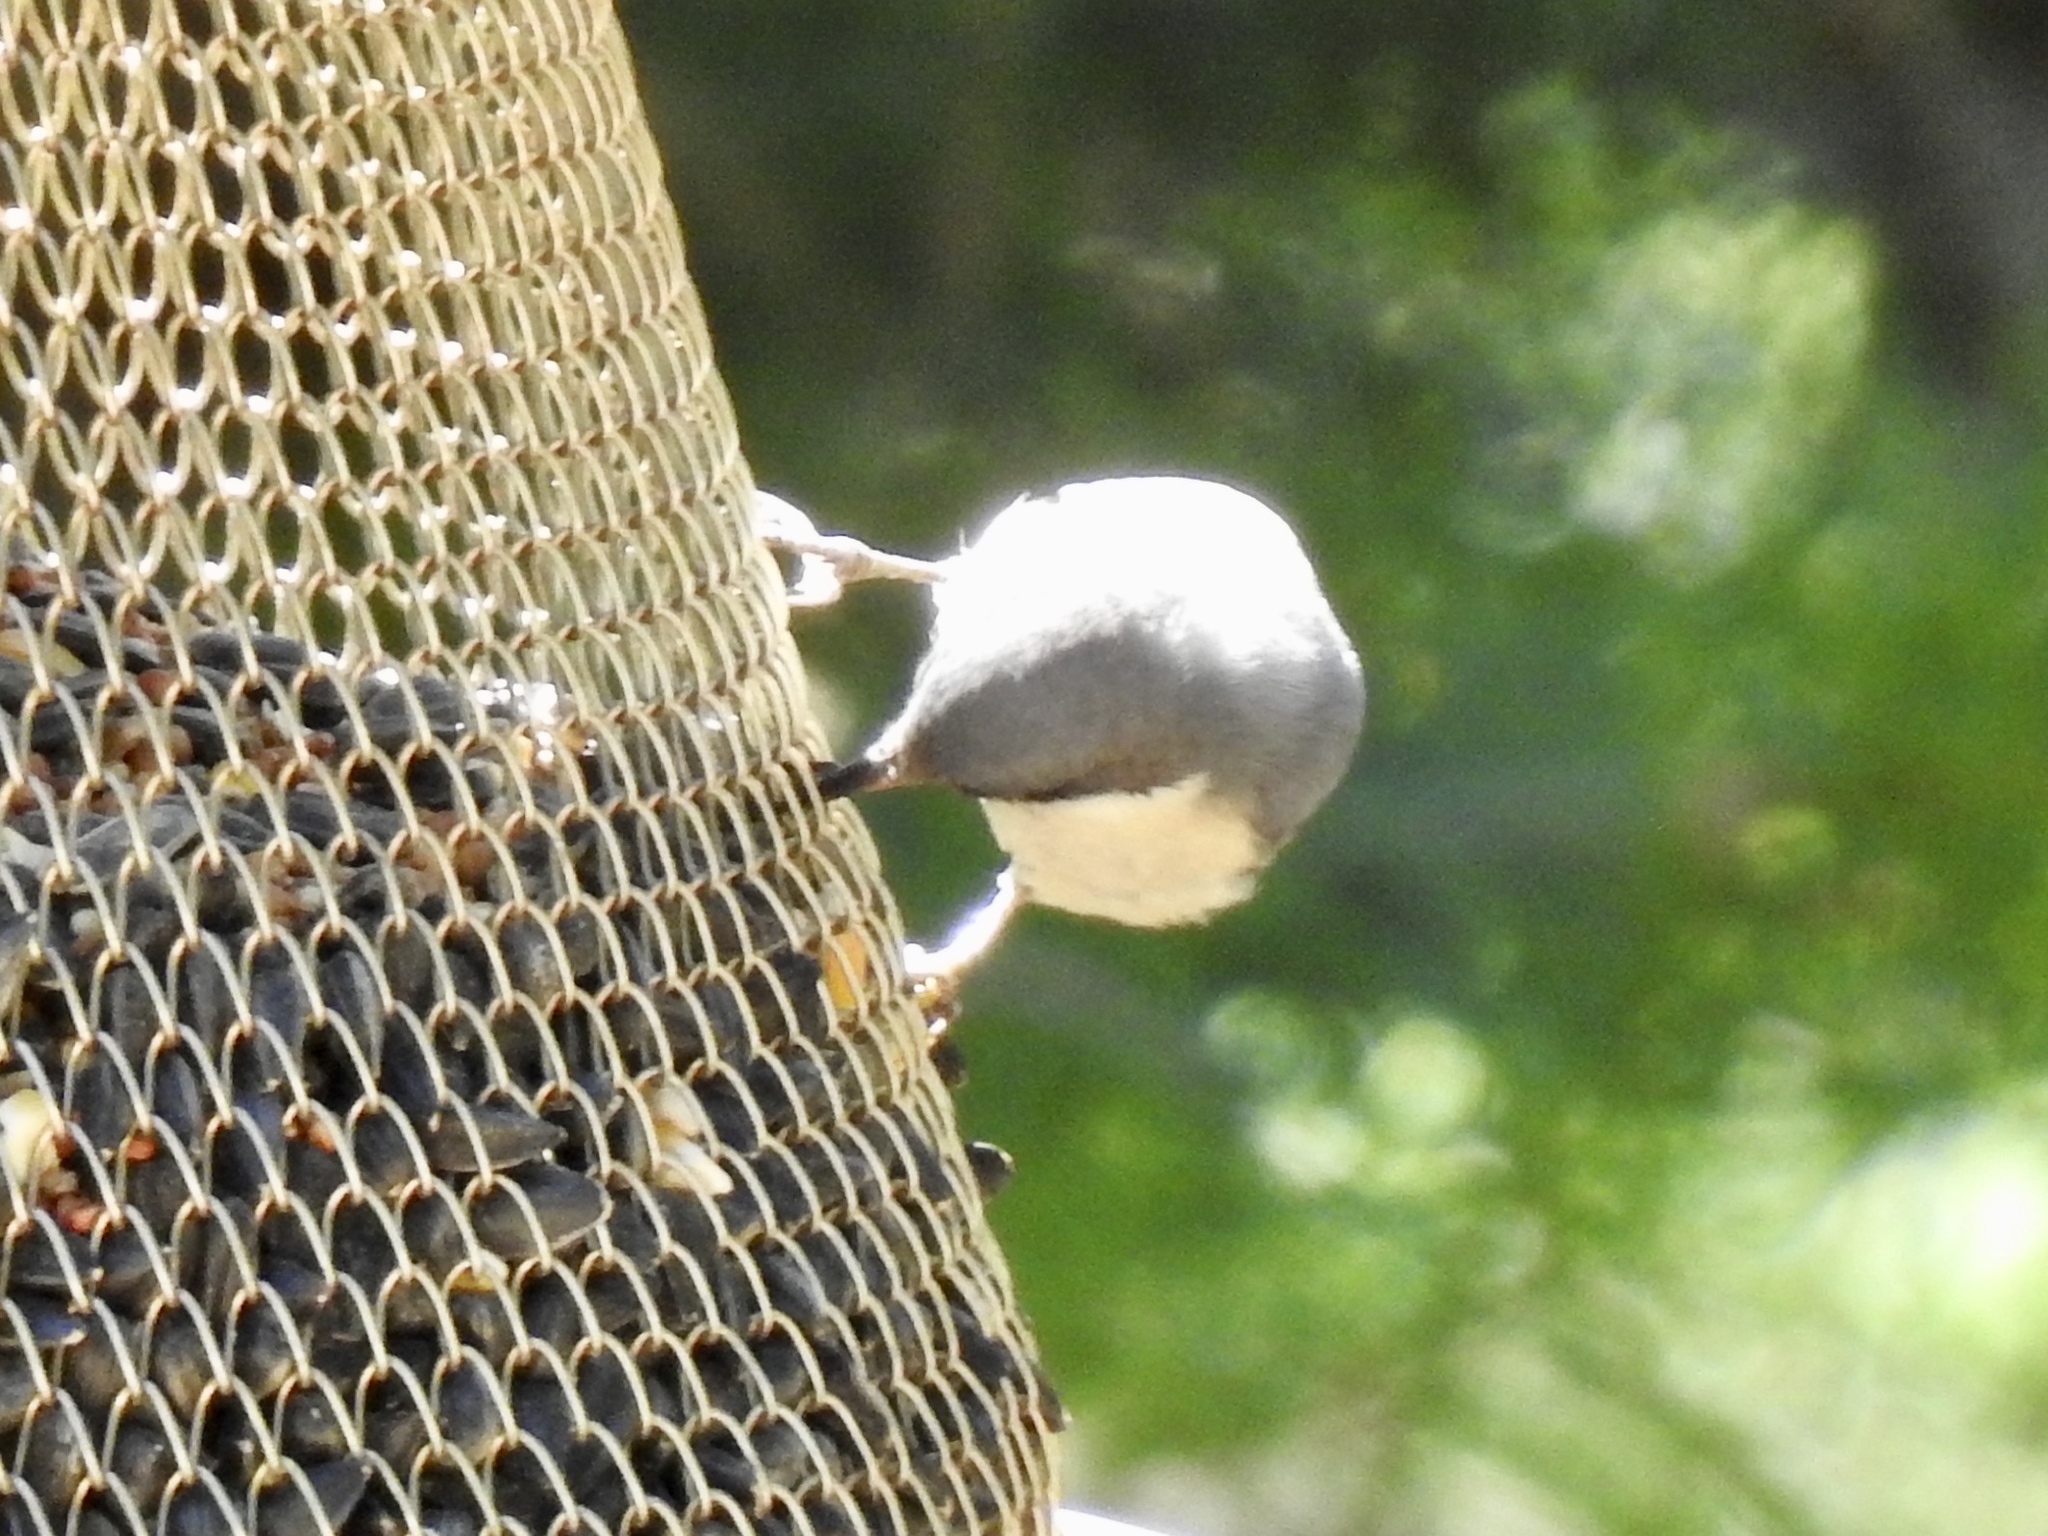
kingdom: Animalia
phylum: Chordata
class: Aves
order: Passeriformes
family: Sittidae
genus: Sitta
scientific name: Sitta pygmaea
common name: Pygmy nuthatch
